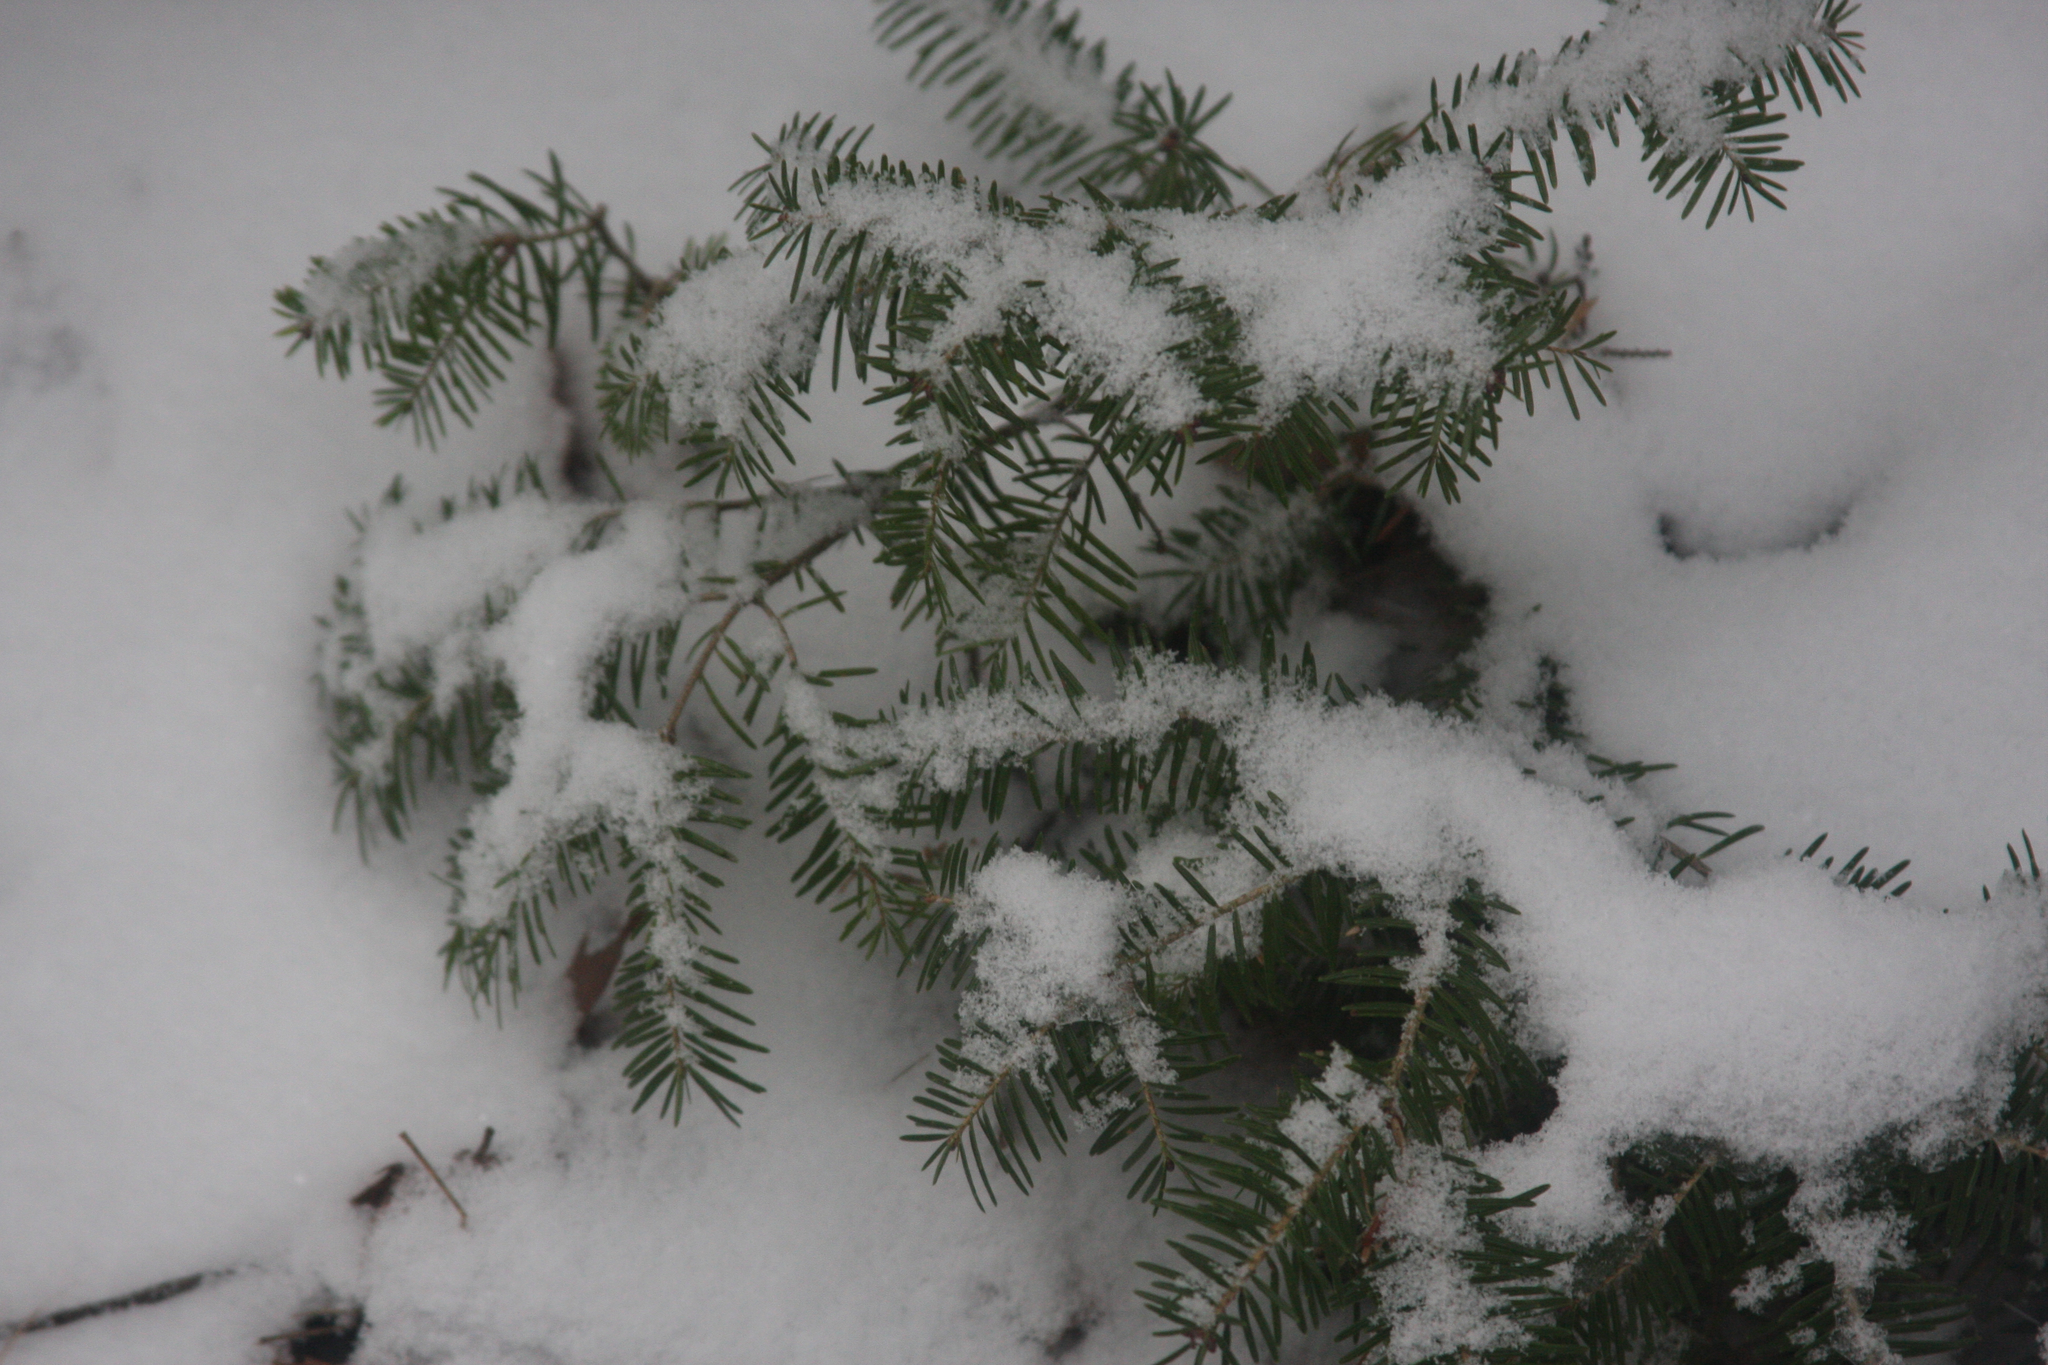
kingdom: Plantae
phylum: Tracheophyta
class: Pinopsida
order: Pinales
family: Pinaceae
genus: Tsuga
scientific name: Tsuga canadensis
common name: Eastern hemlock
